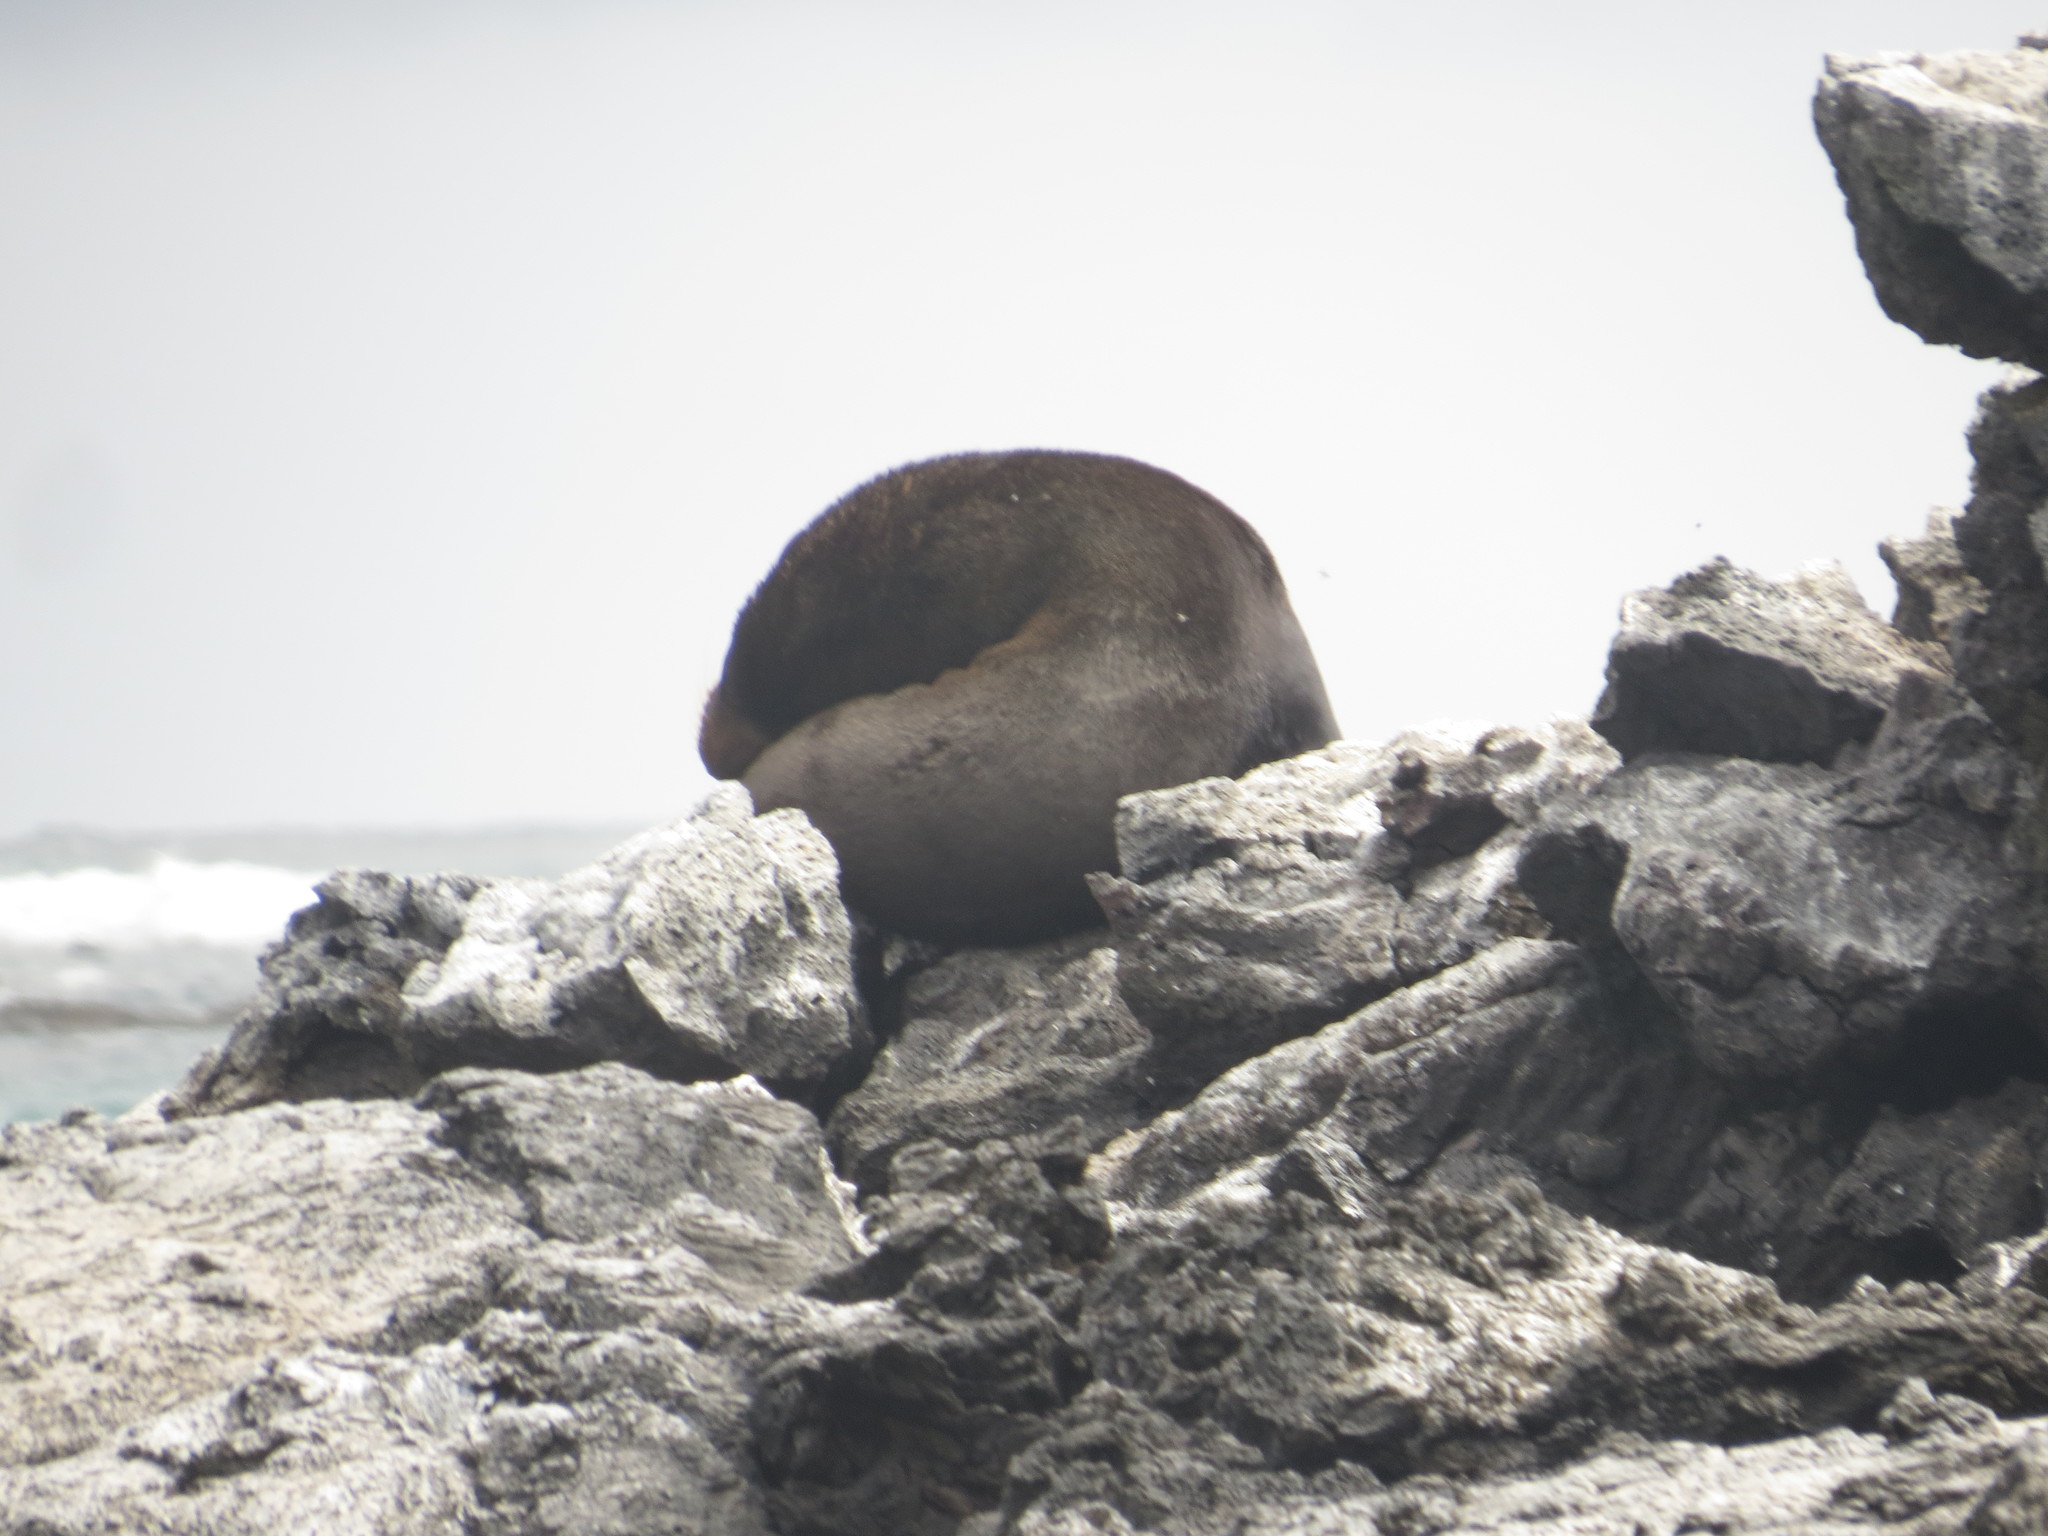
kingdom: Animalia
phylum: Chordata
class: Mammalia
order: Carnivora
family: Otariidae
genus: Arctocephalus
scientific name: Arctocephalus galapagoensis
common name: Galapagos fur seal
